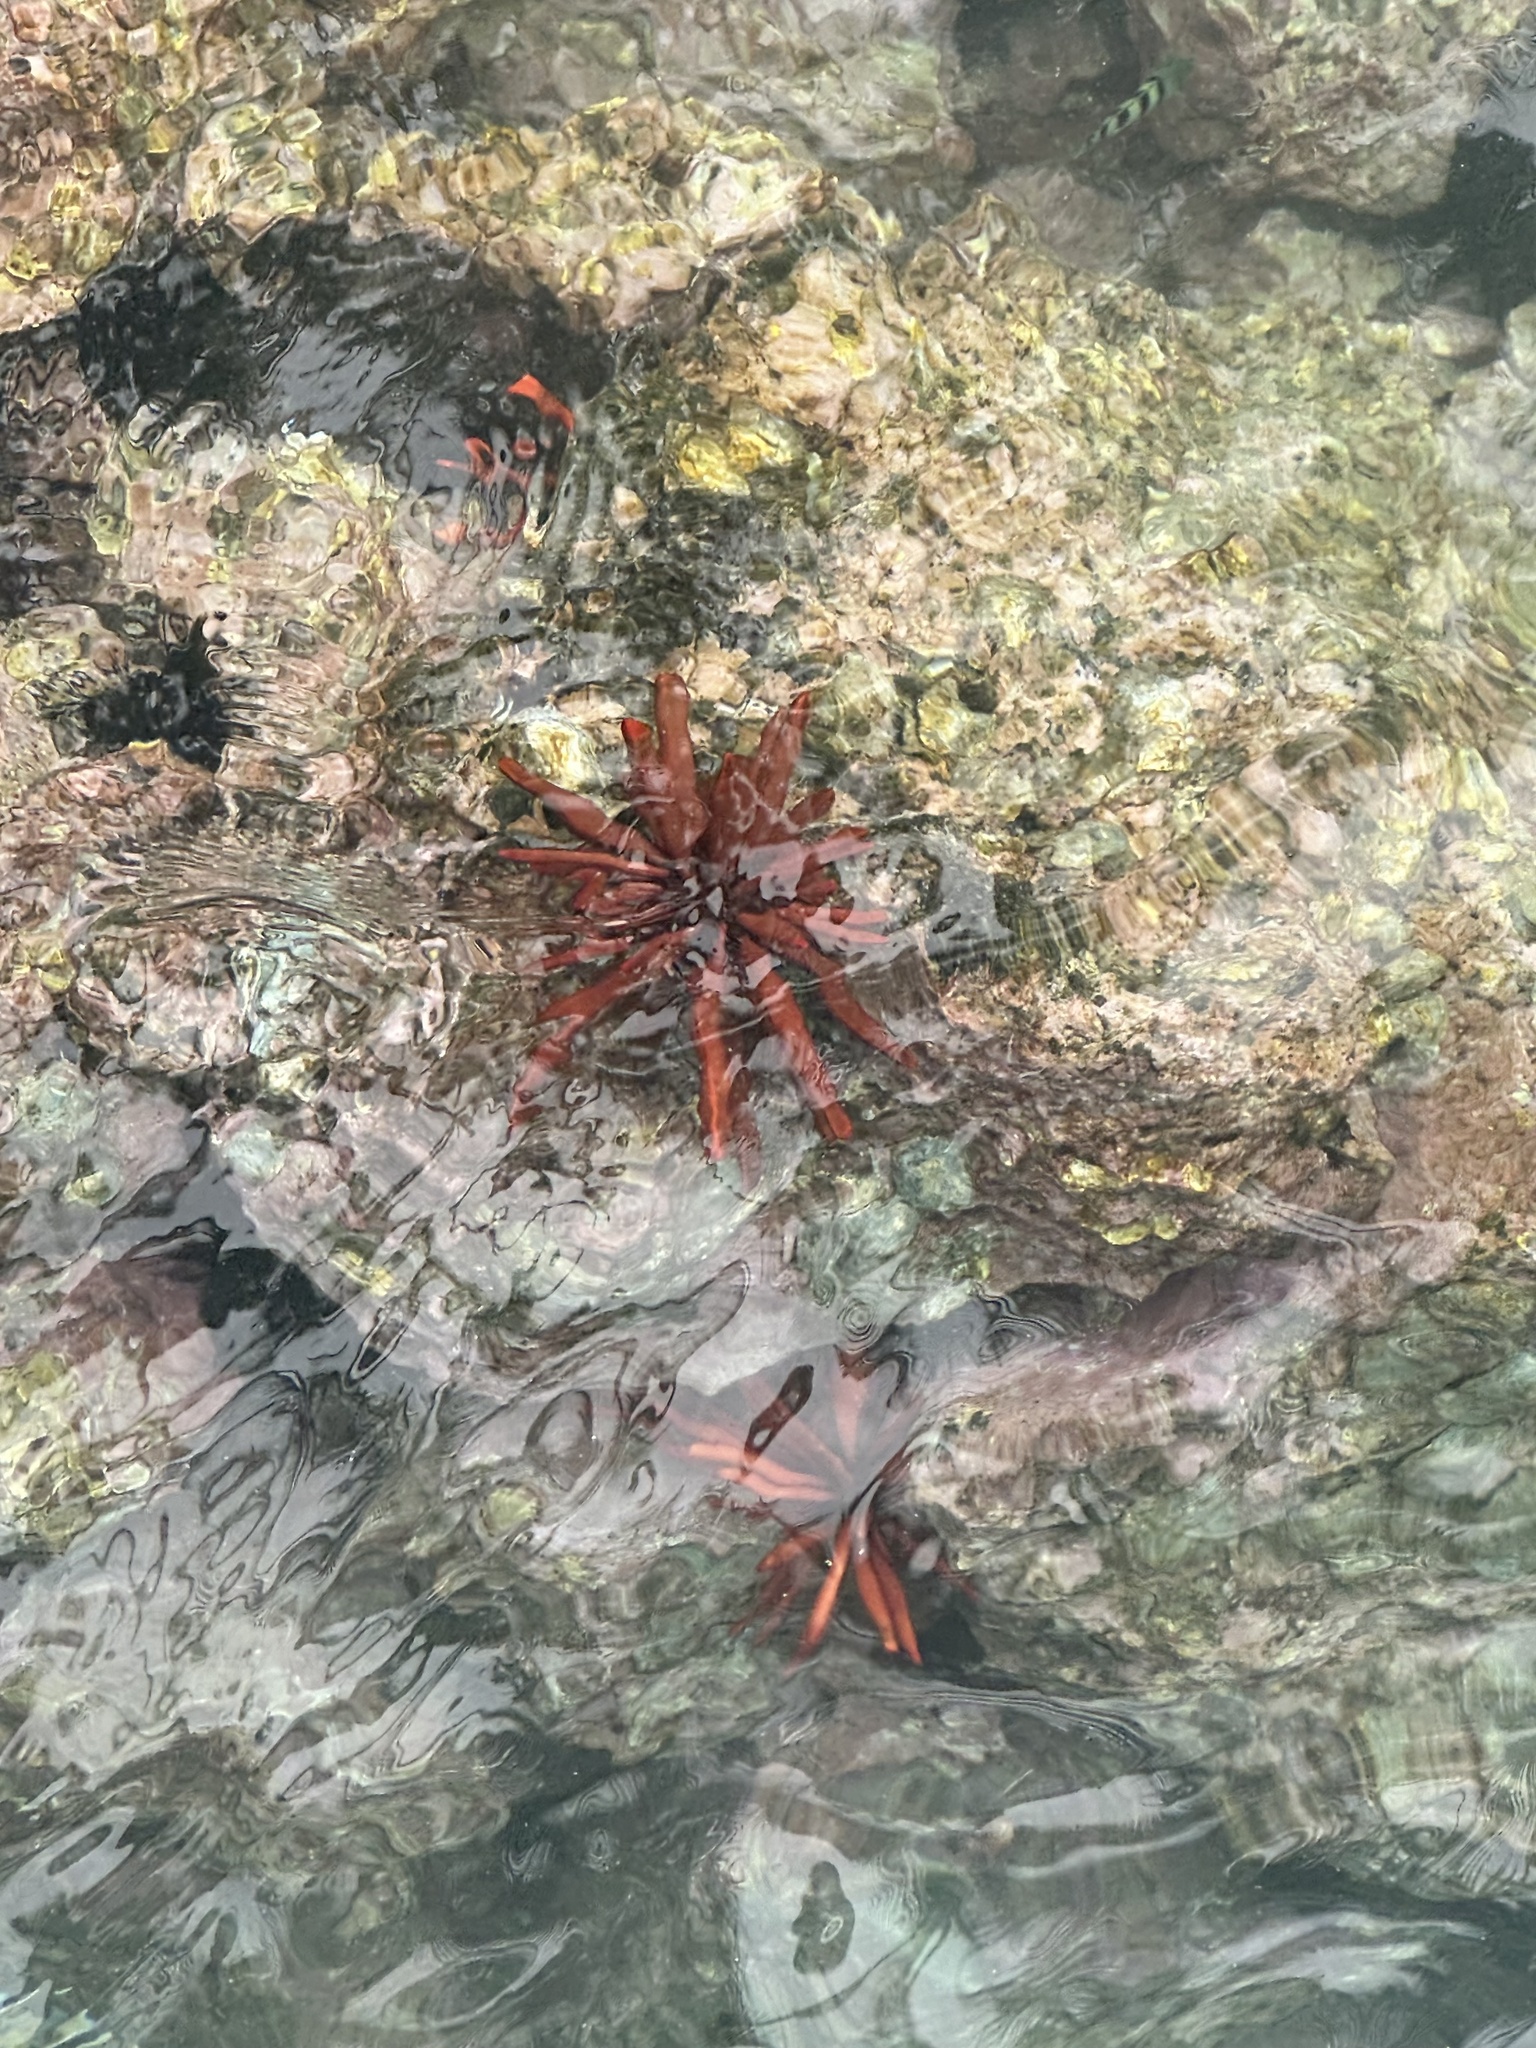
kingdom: Animalia
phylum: Echinodermata
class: Echinoidea
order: Camarodonta
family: Echinometridae
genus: Heterocentrotus
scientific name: Heterocentrotus mamillatus
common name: Slate pencil urchin
